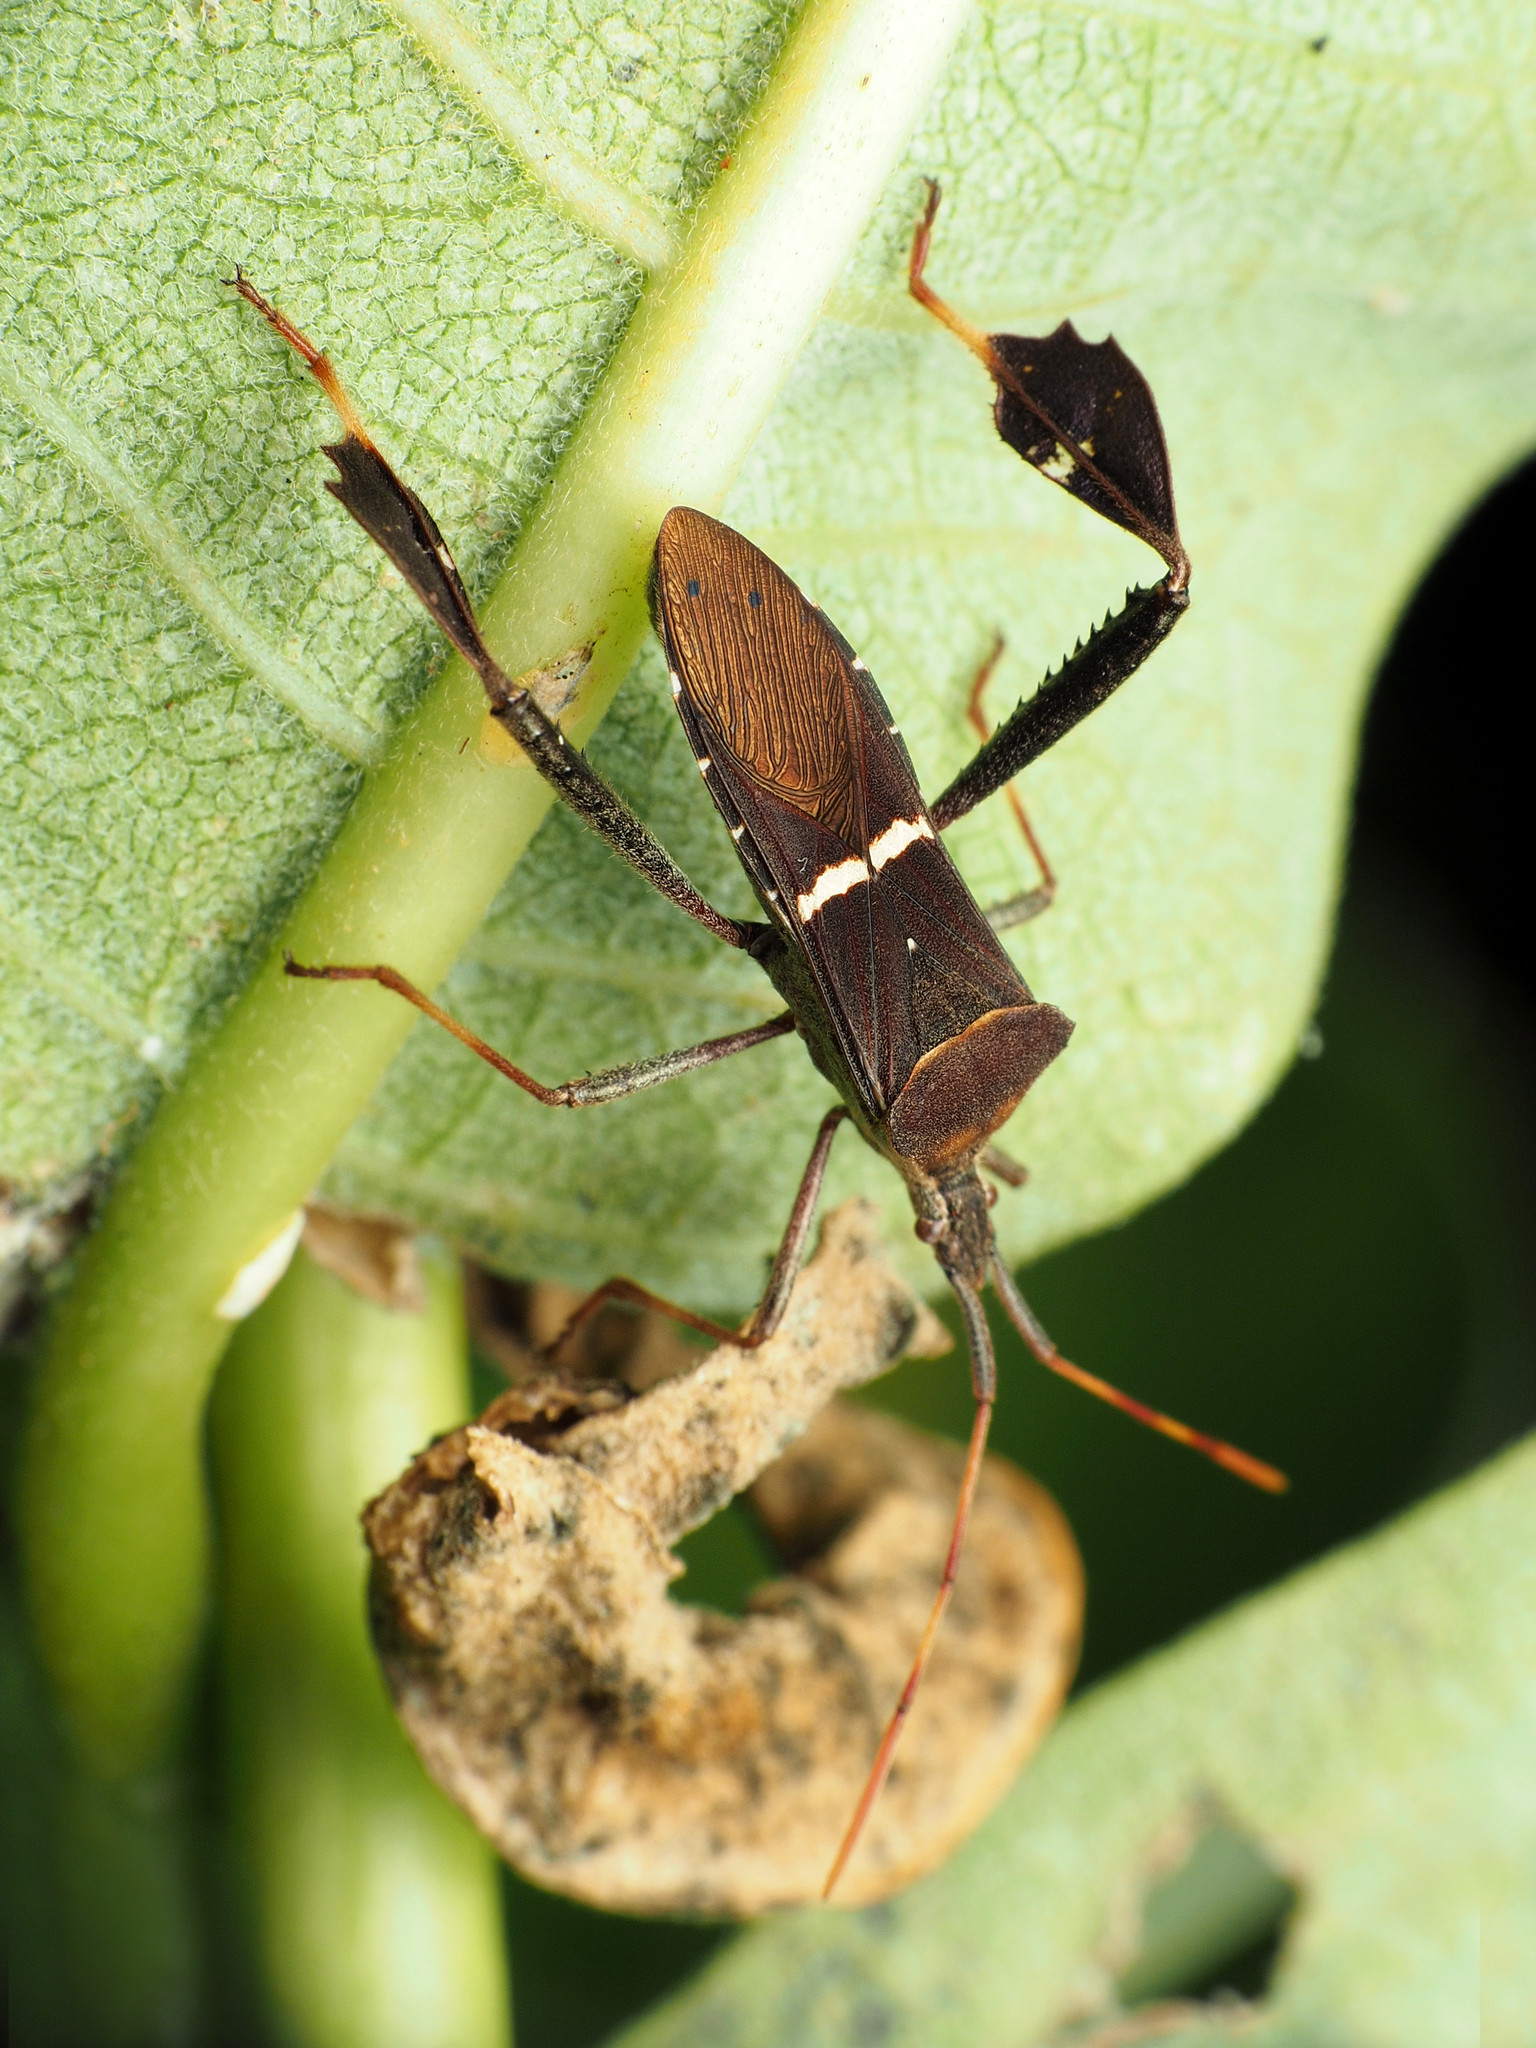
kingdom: Animalia
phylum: Arthropoda
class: Insecta
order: Hemiptera
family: Coreidae
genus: Leptoglossus
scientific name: Leptoglossus phyllopus
